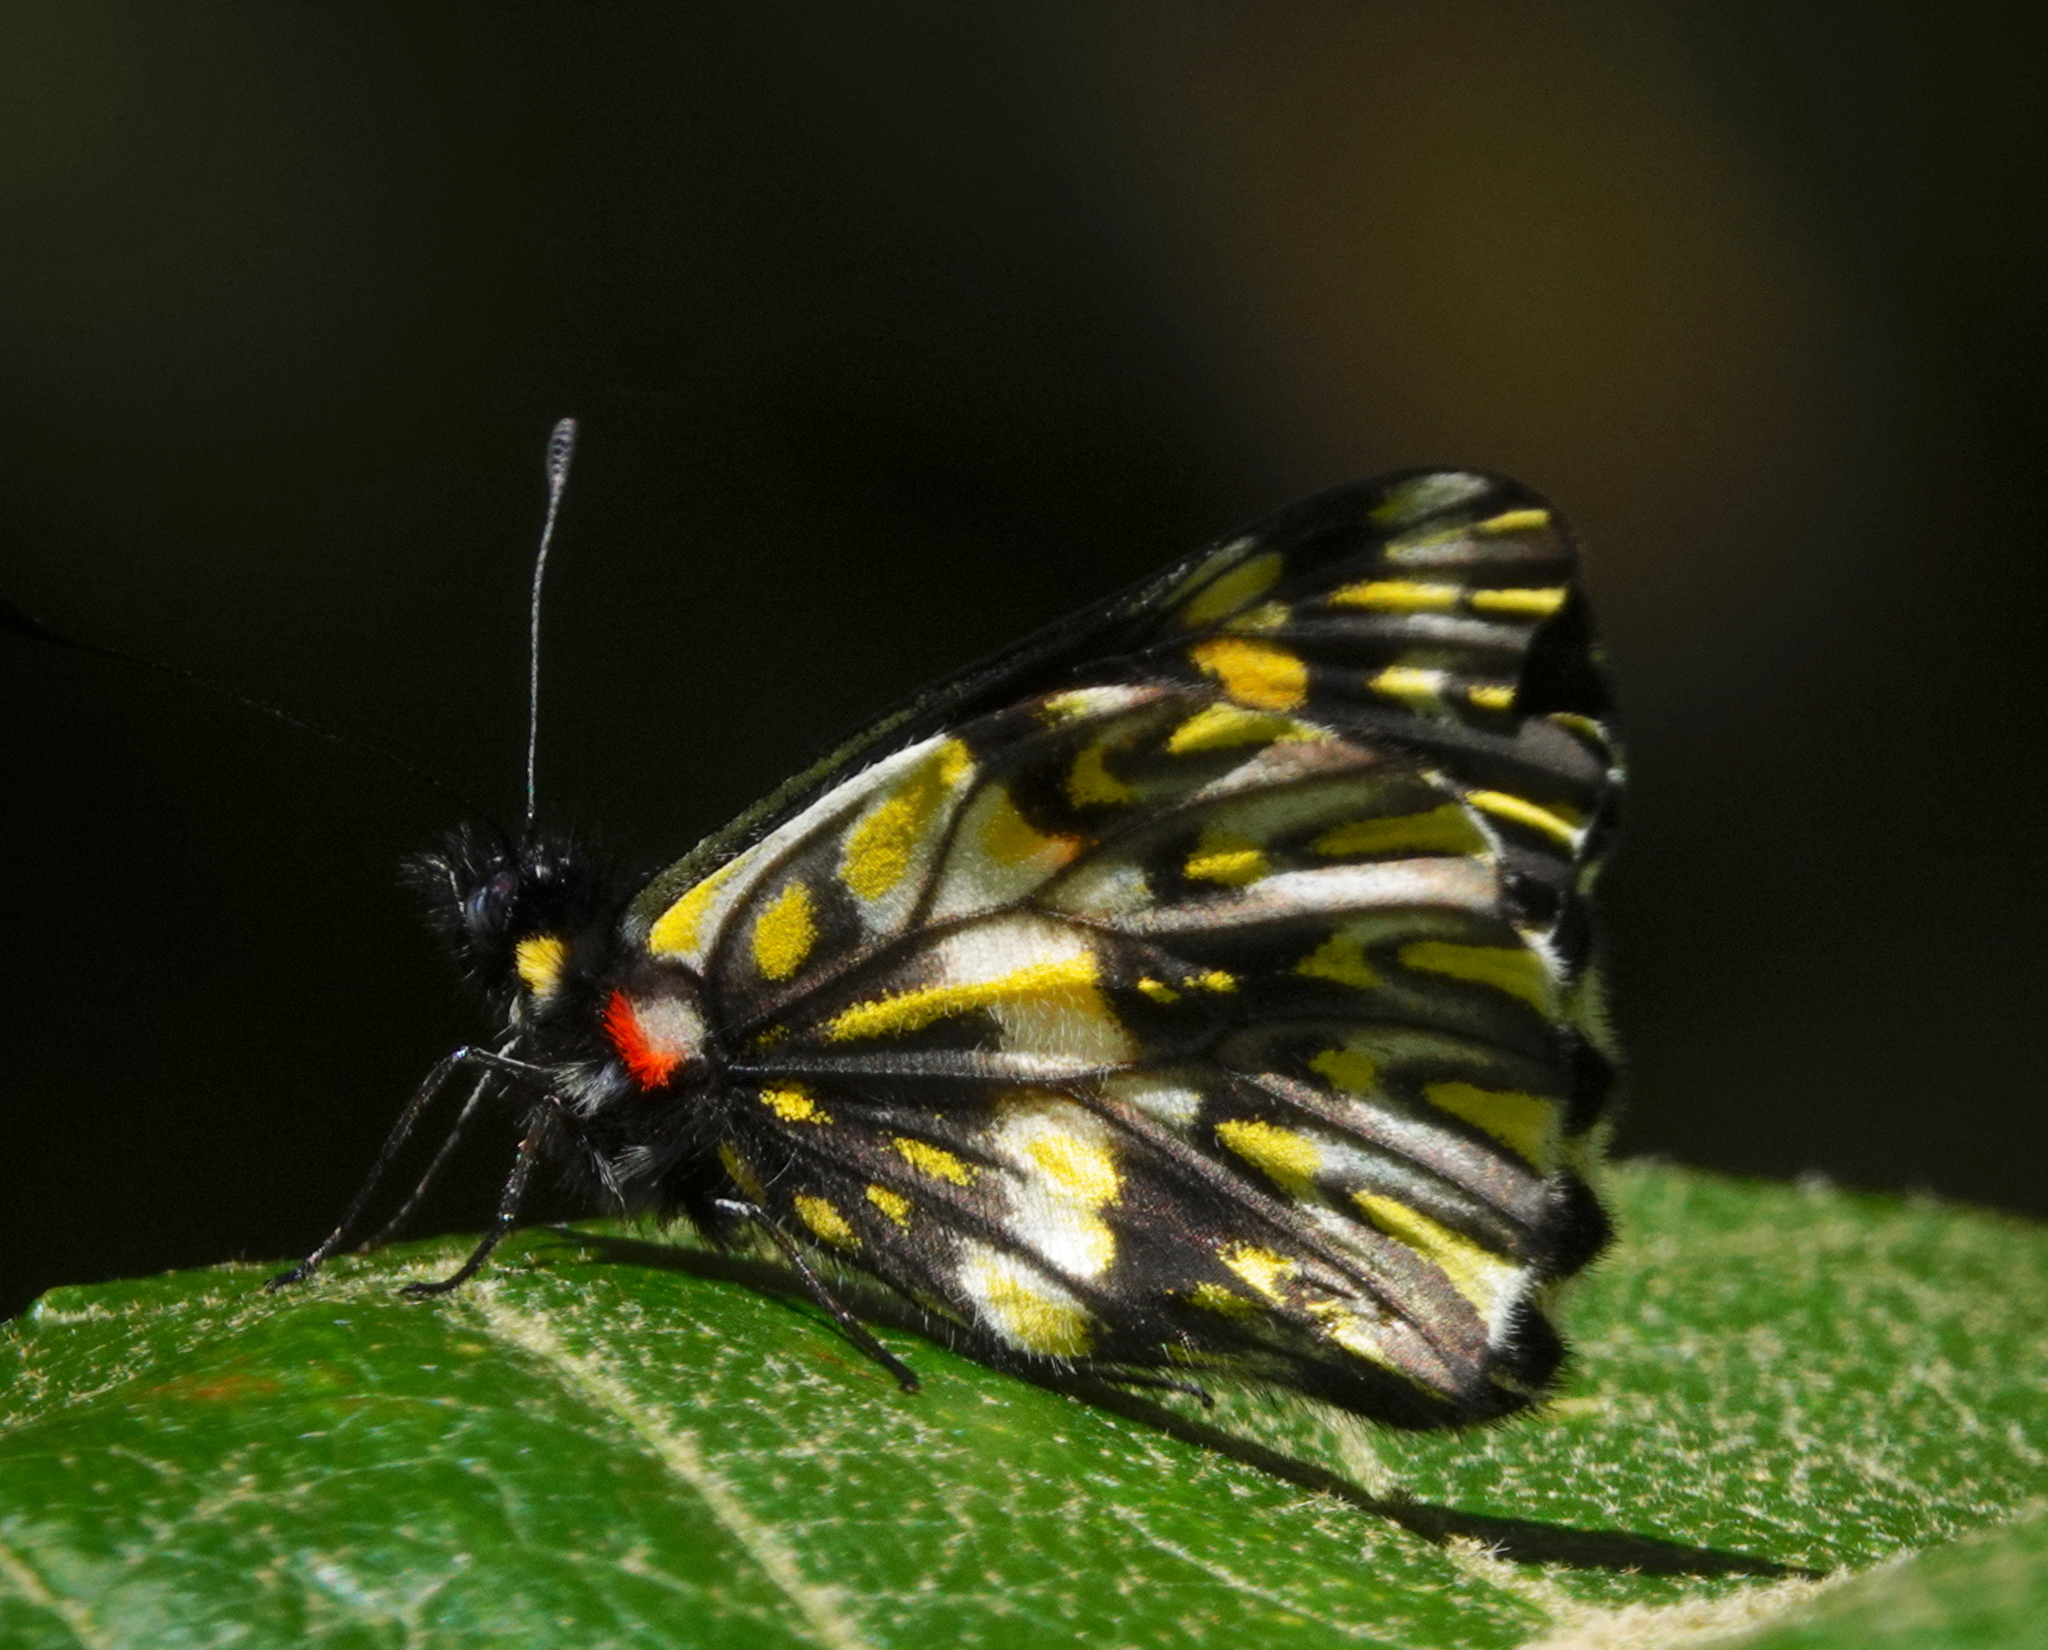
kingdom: Animalia
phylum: Arthropoda
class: Insecta
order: Lepidoptera
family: Pieridae
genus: Archonias
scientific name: Archonias teutila
